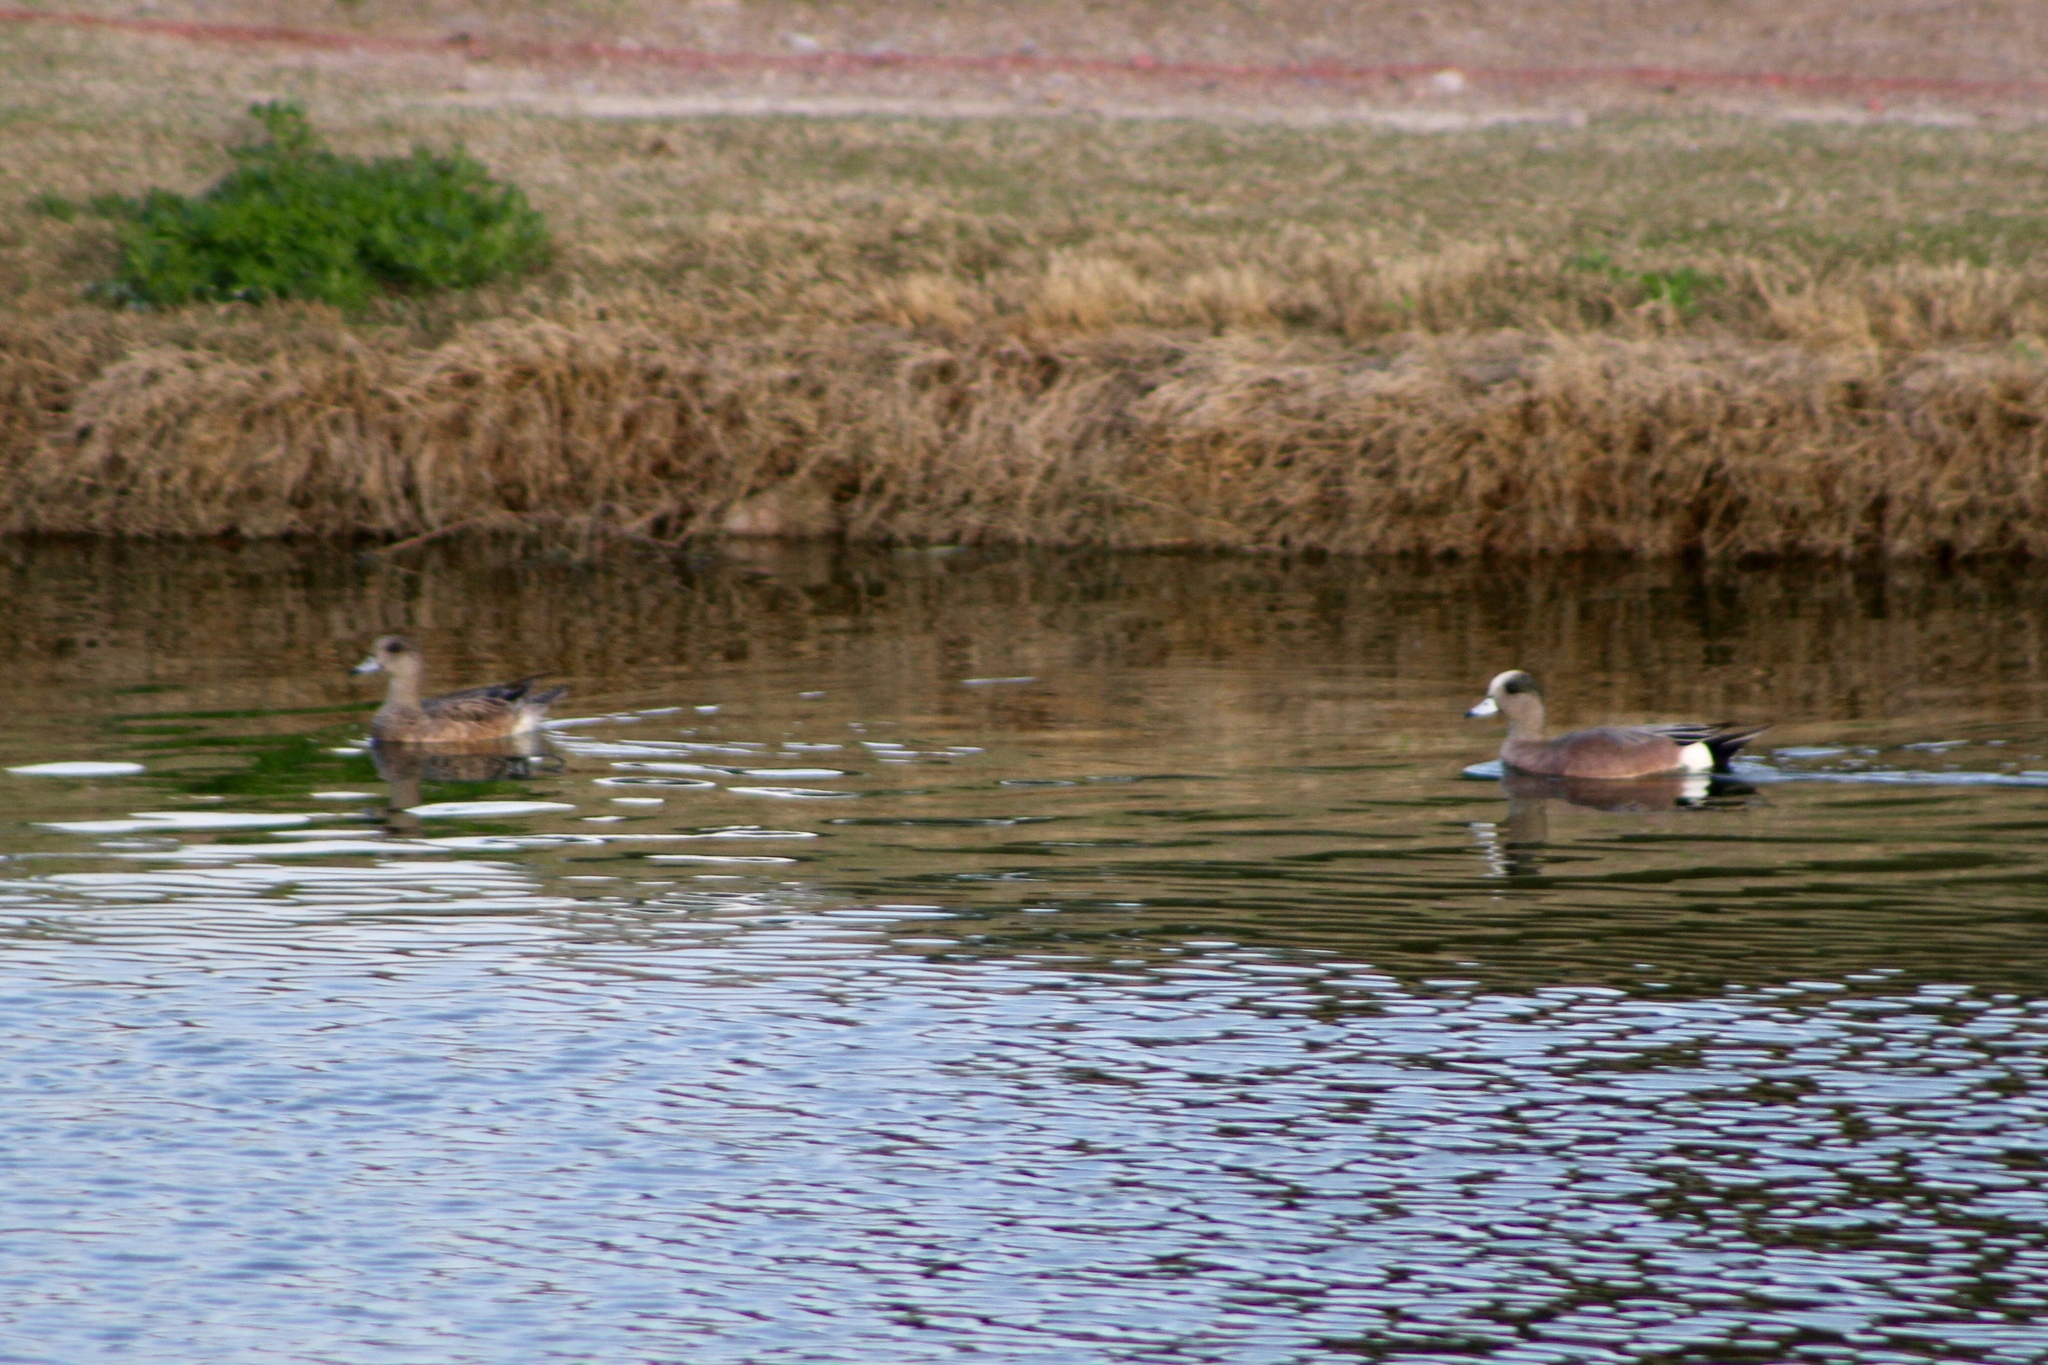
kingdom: Animalia
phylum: Chordata
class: Aves
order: Anseriformes
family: Anatidae
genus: Mareca
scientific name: Mareca americana
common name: American wigeon
